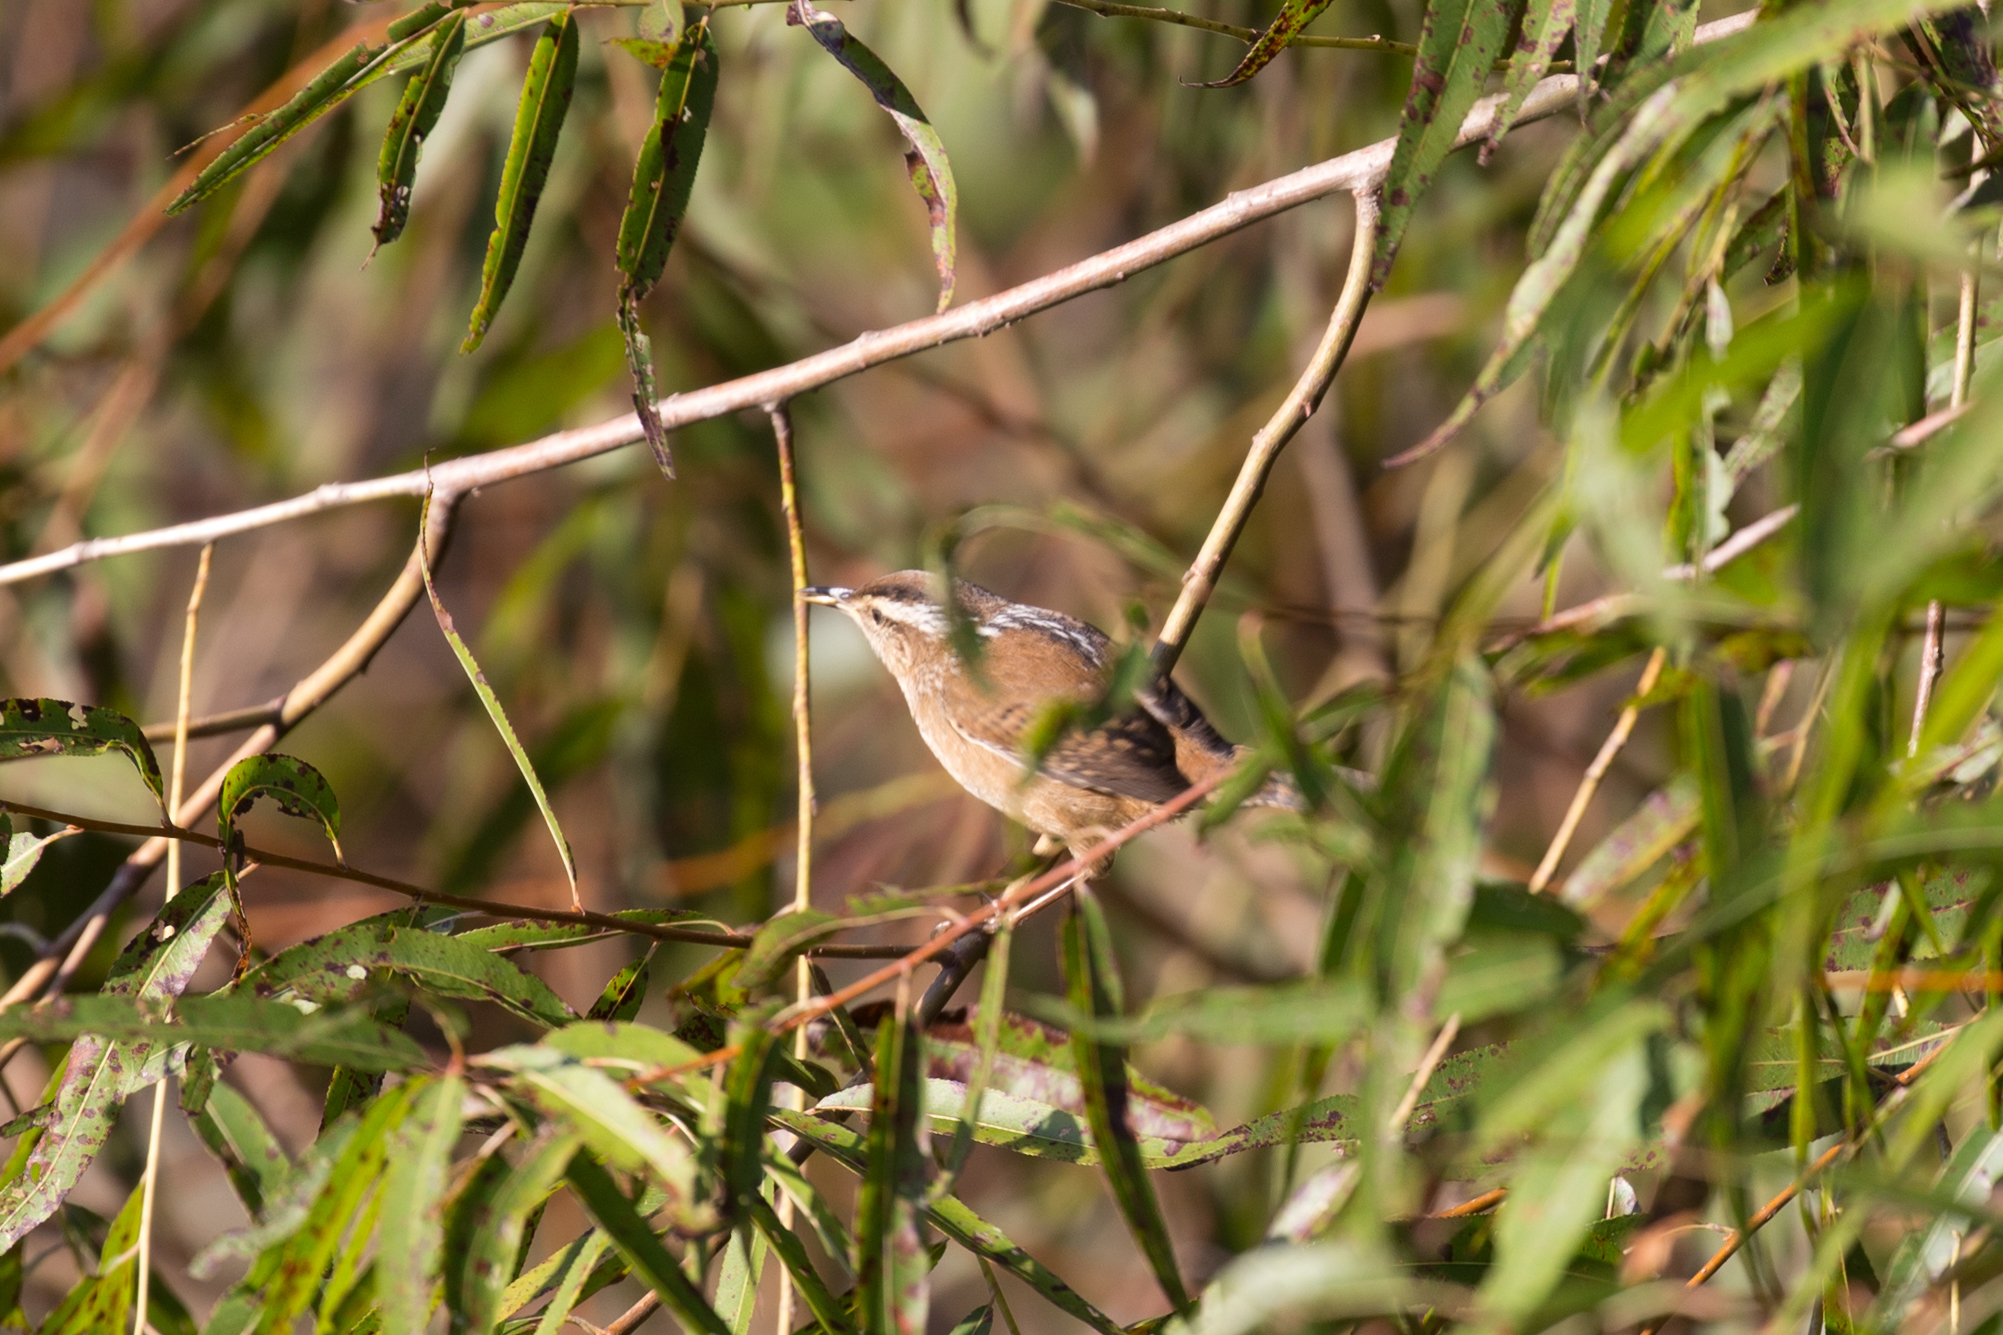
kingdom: Animalia
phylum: Chordata
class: Aves
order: Passeriformes
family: Troglodytidae
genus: Cistothorus
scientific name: Cistothorus palustris
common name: Marsh wren
